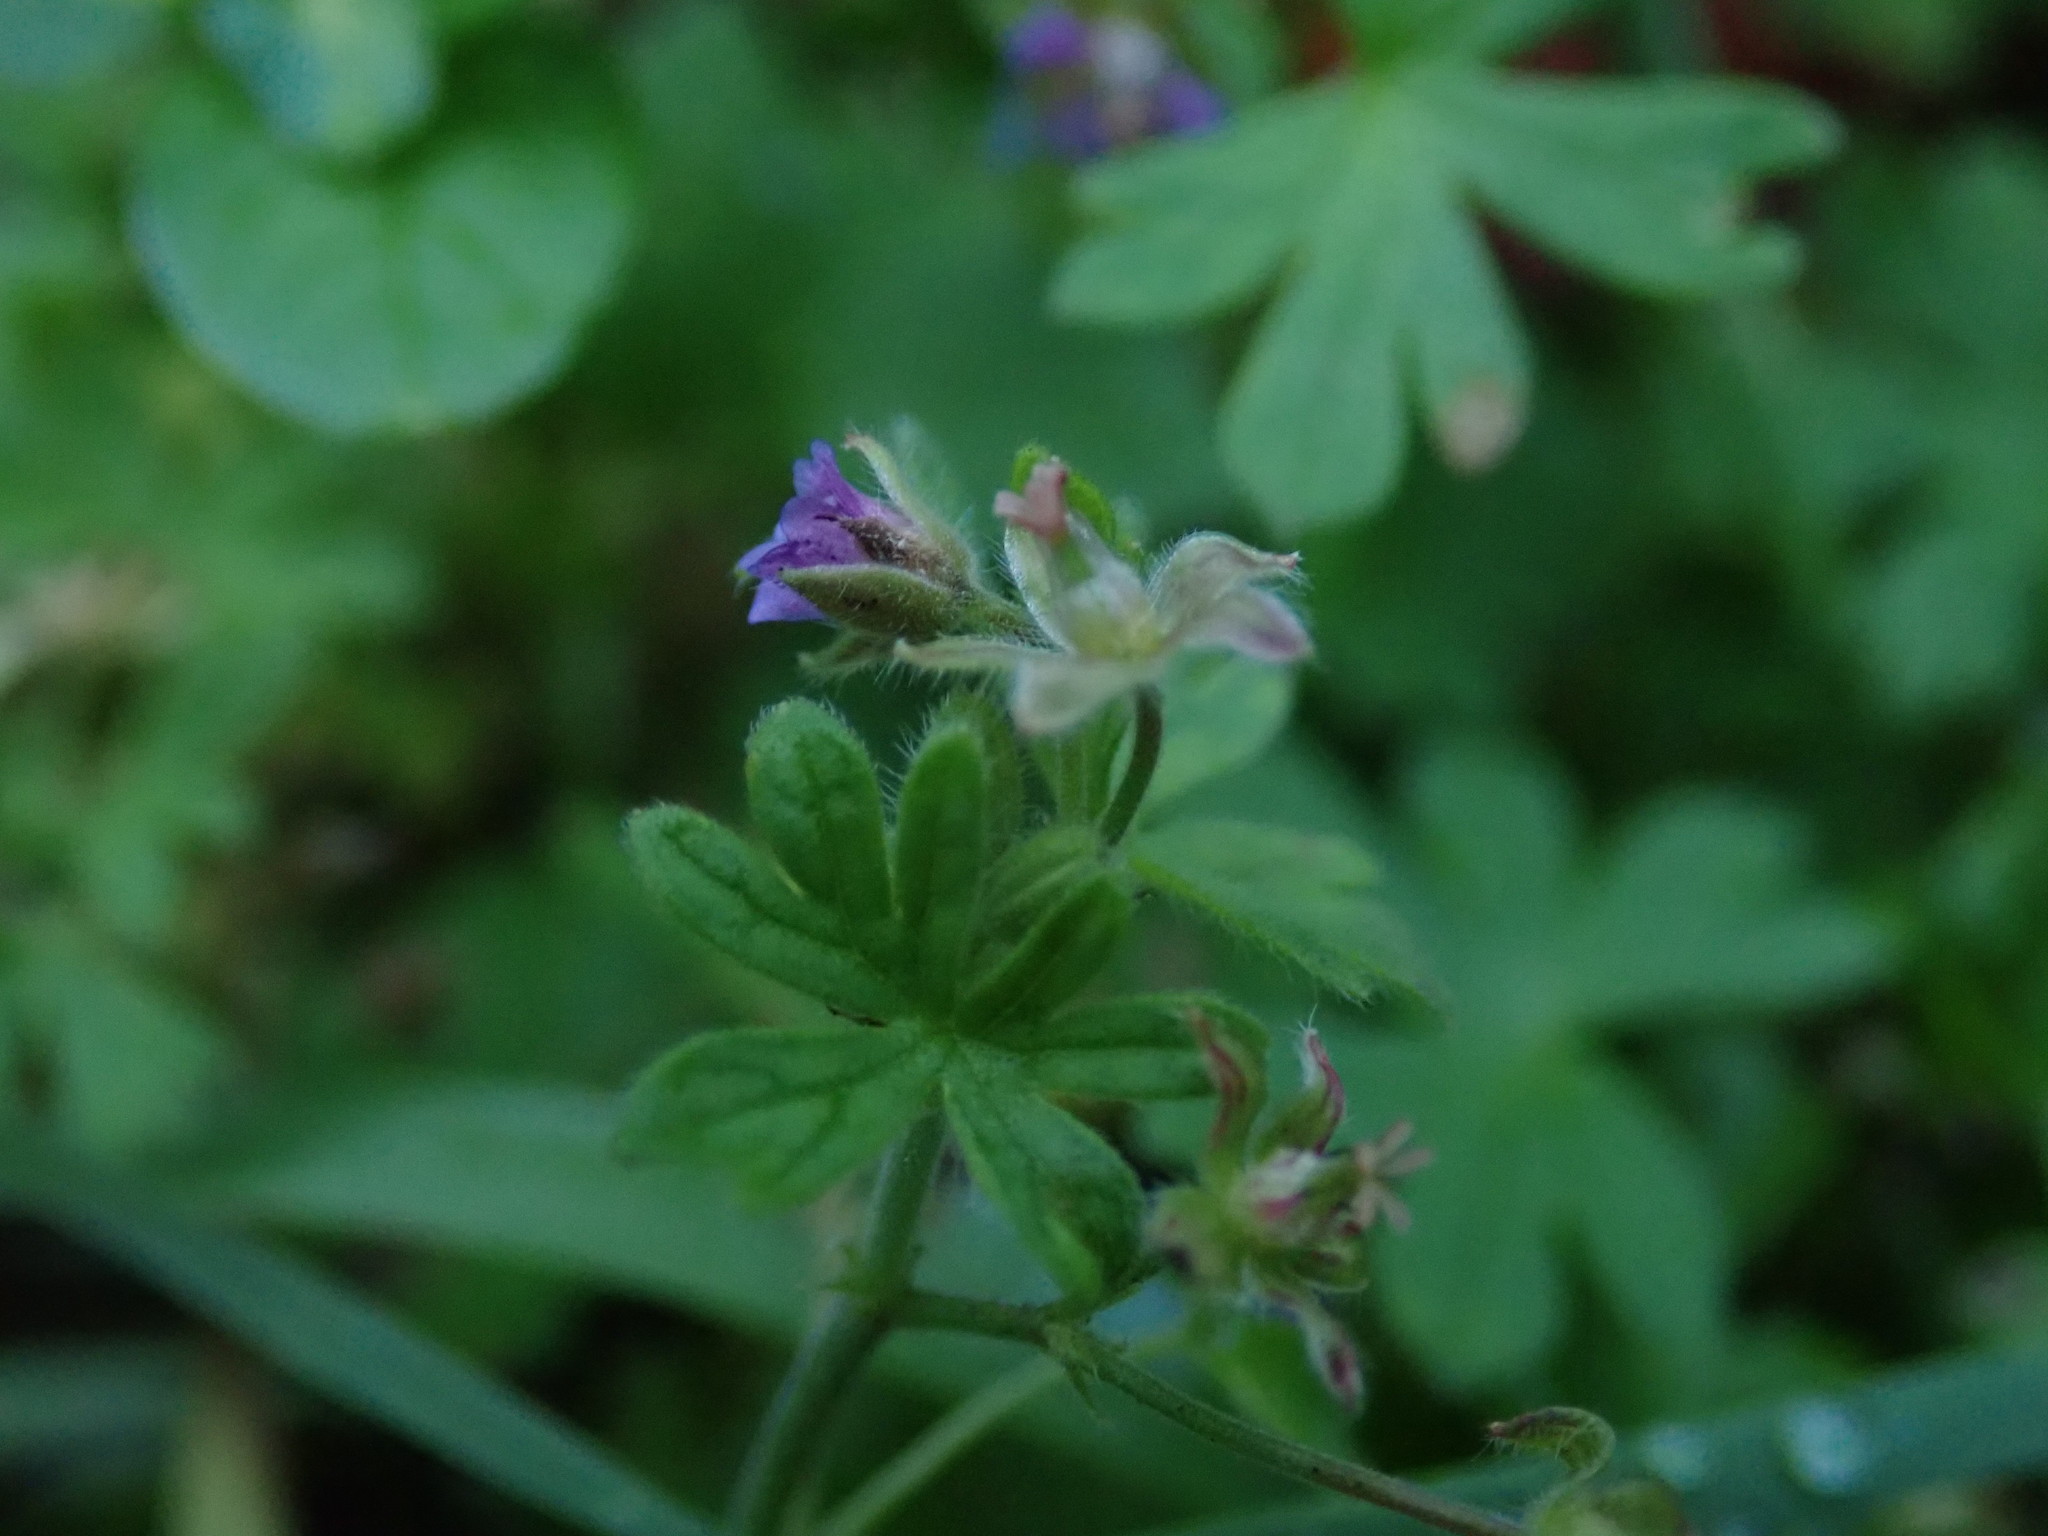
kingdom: Plantae
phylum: Tracheophyta
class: Magnoliopsida
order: Geraniales
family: Geraniaceae
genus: Geranium
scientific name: Geranium pusillum
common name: Small geranium
